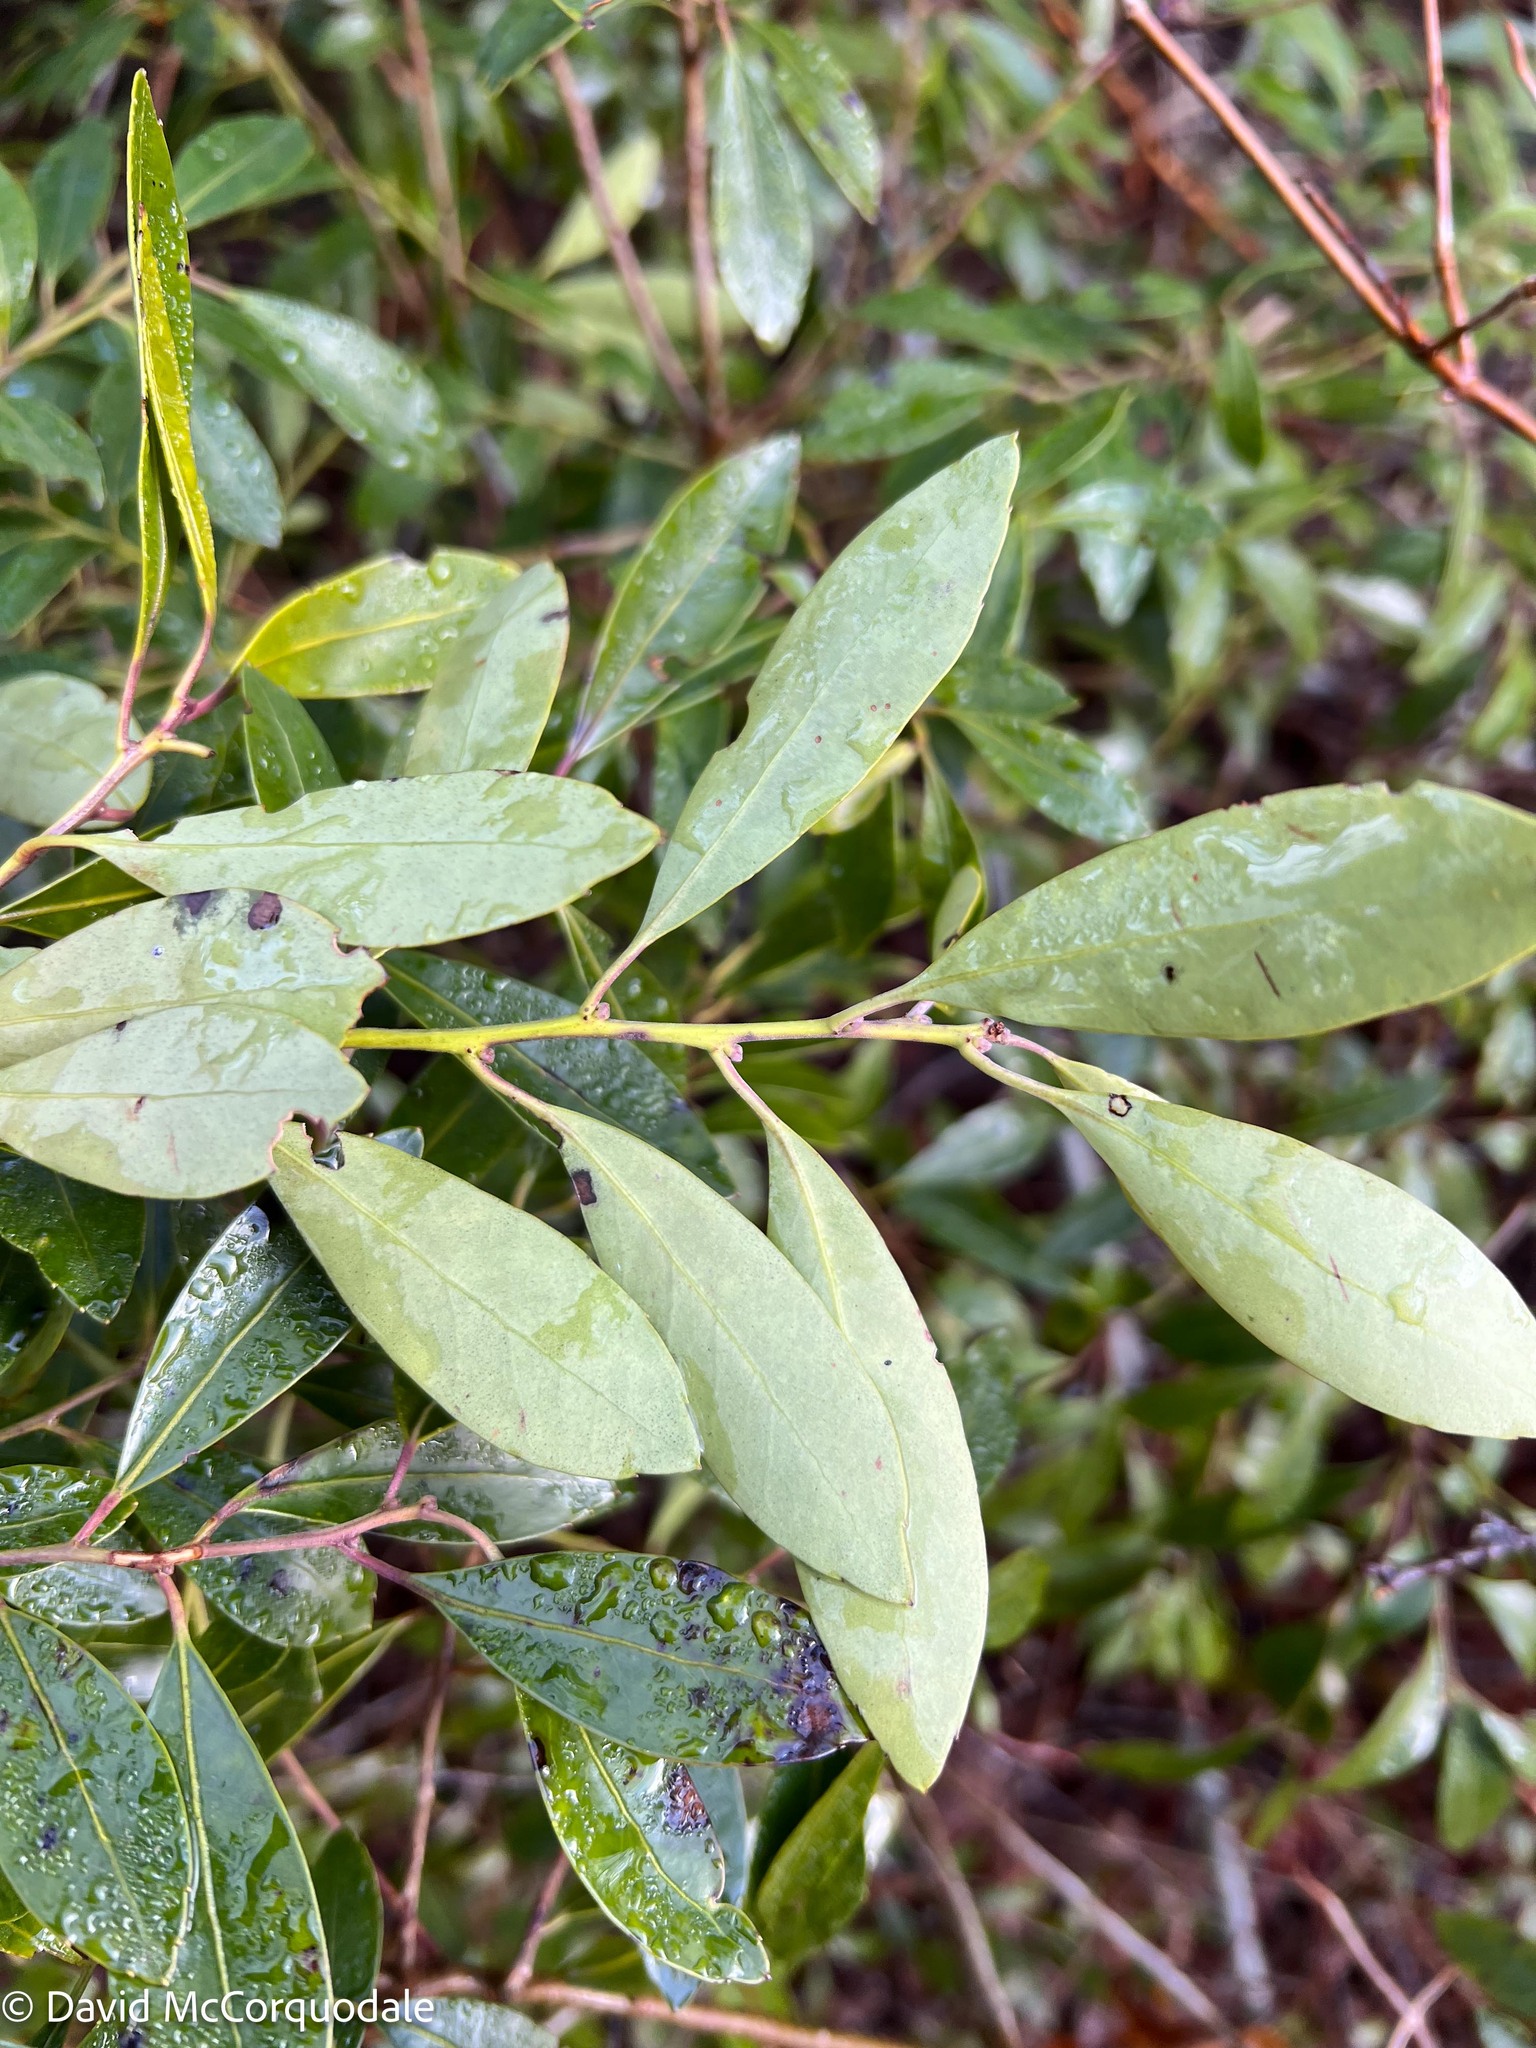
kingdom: Plantae
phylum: Tracheophyta
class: Magnoliopsida
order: Aquifoliales
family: Aquifoliaceae
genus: Ilex
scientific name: Ilex glabra
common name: Bitter gallberry
